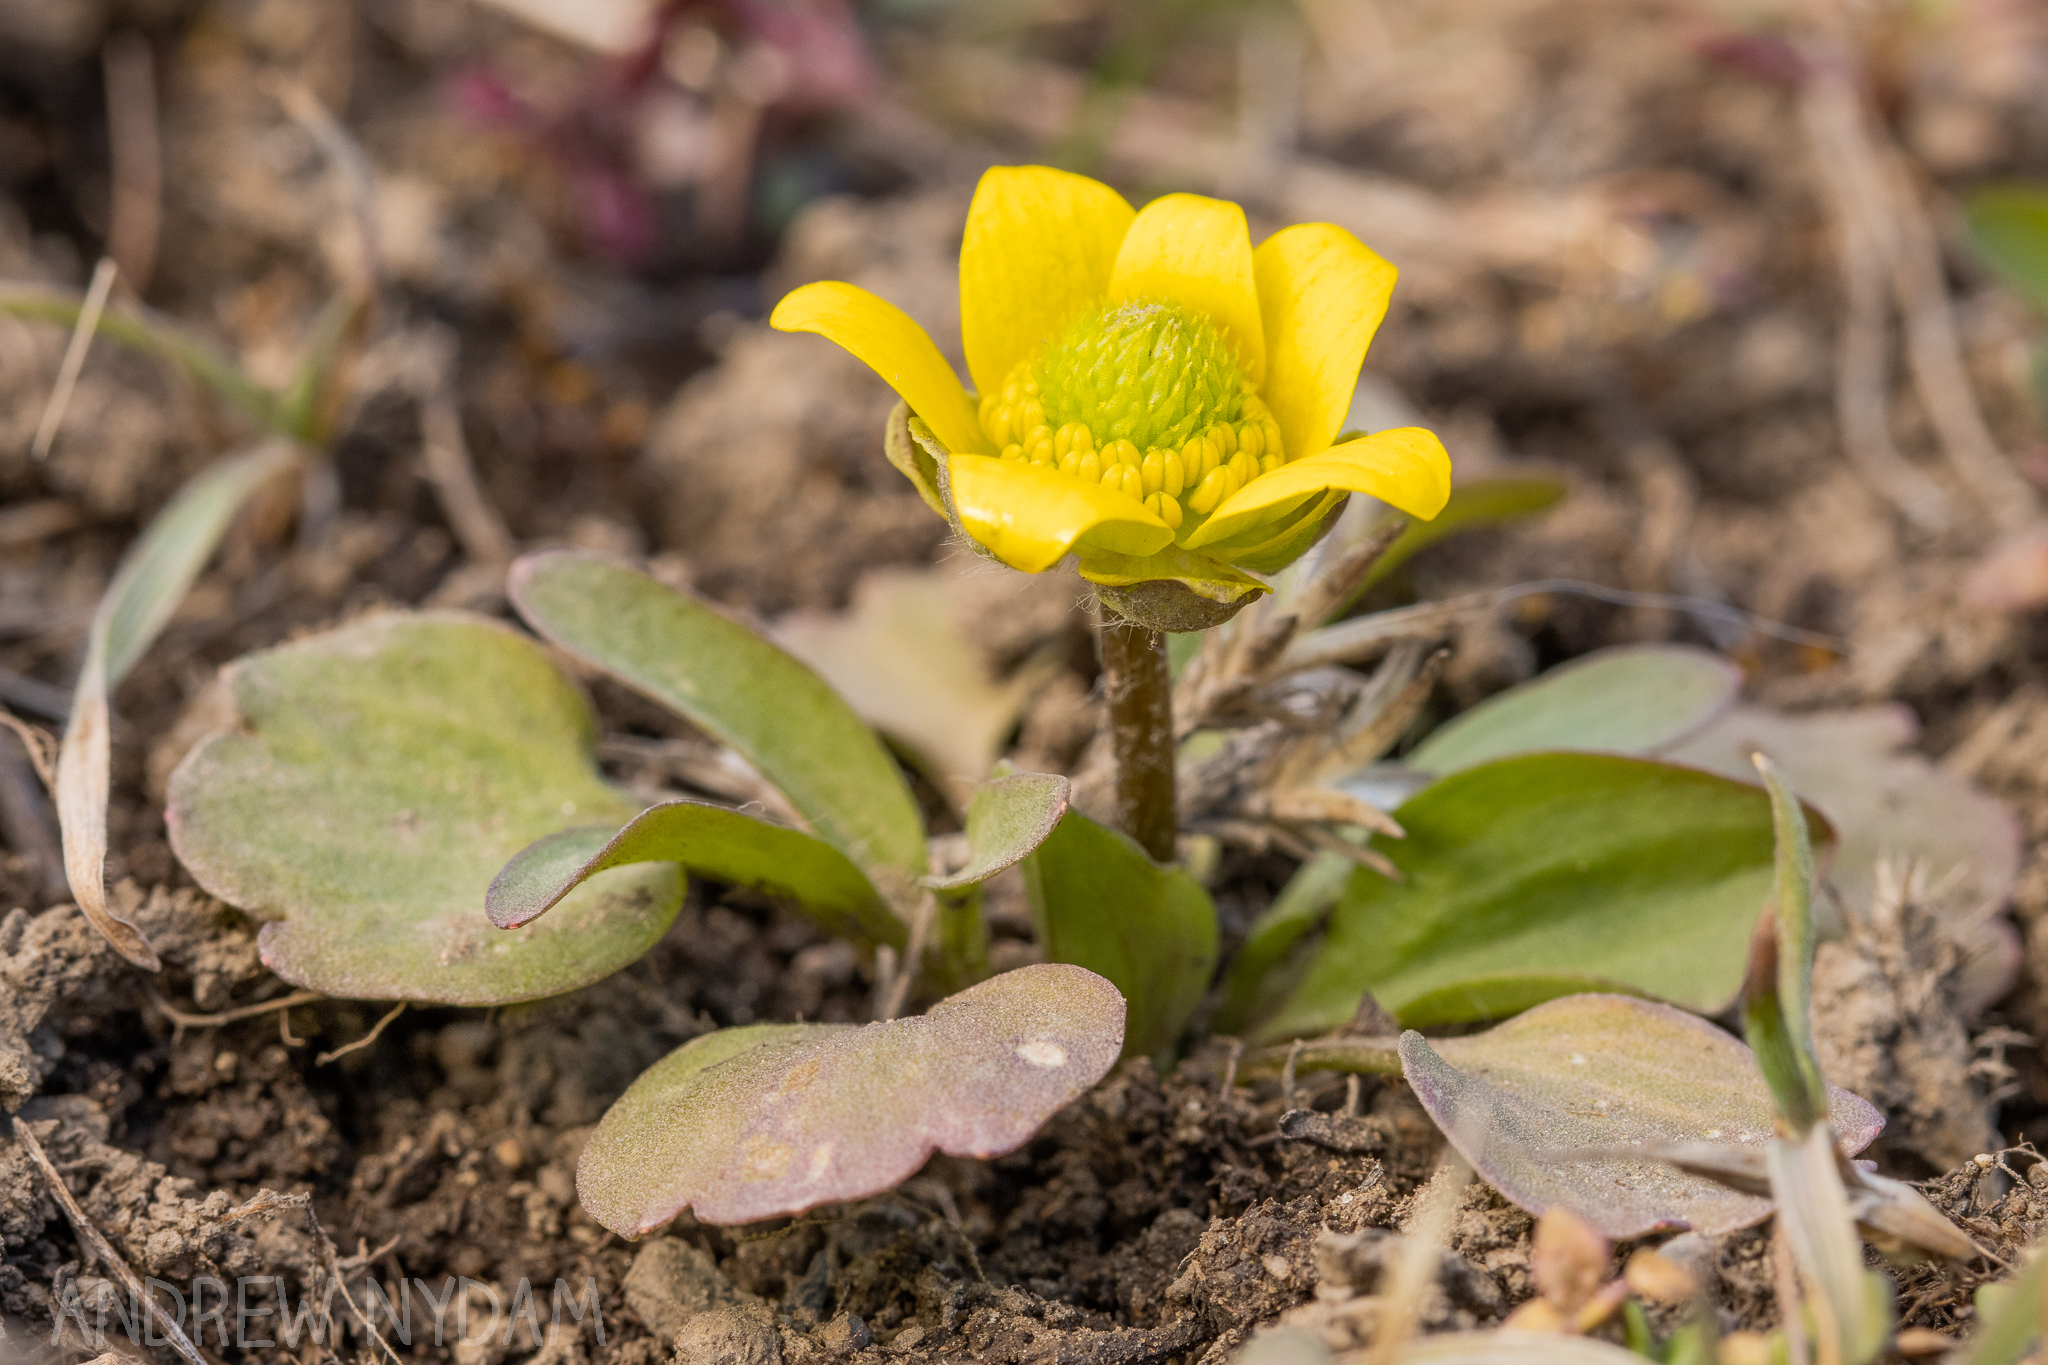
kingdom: Plantae
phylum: Tracheophyta
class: Magnoliopsida
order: Ranunculales
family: Ranunculaceae
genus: Ranunculus
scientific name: Ranunculus glaberrimus
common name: Sagebrush buttercup
